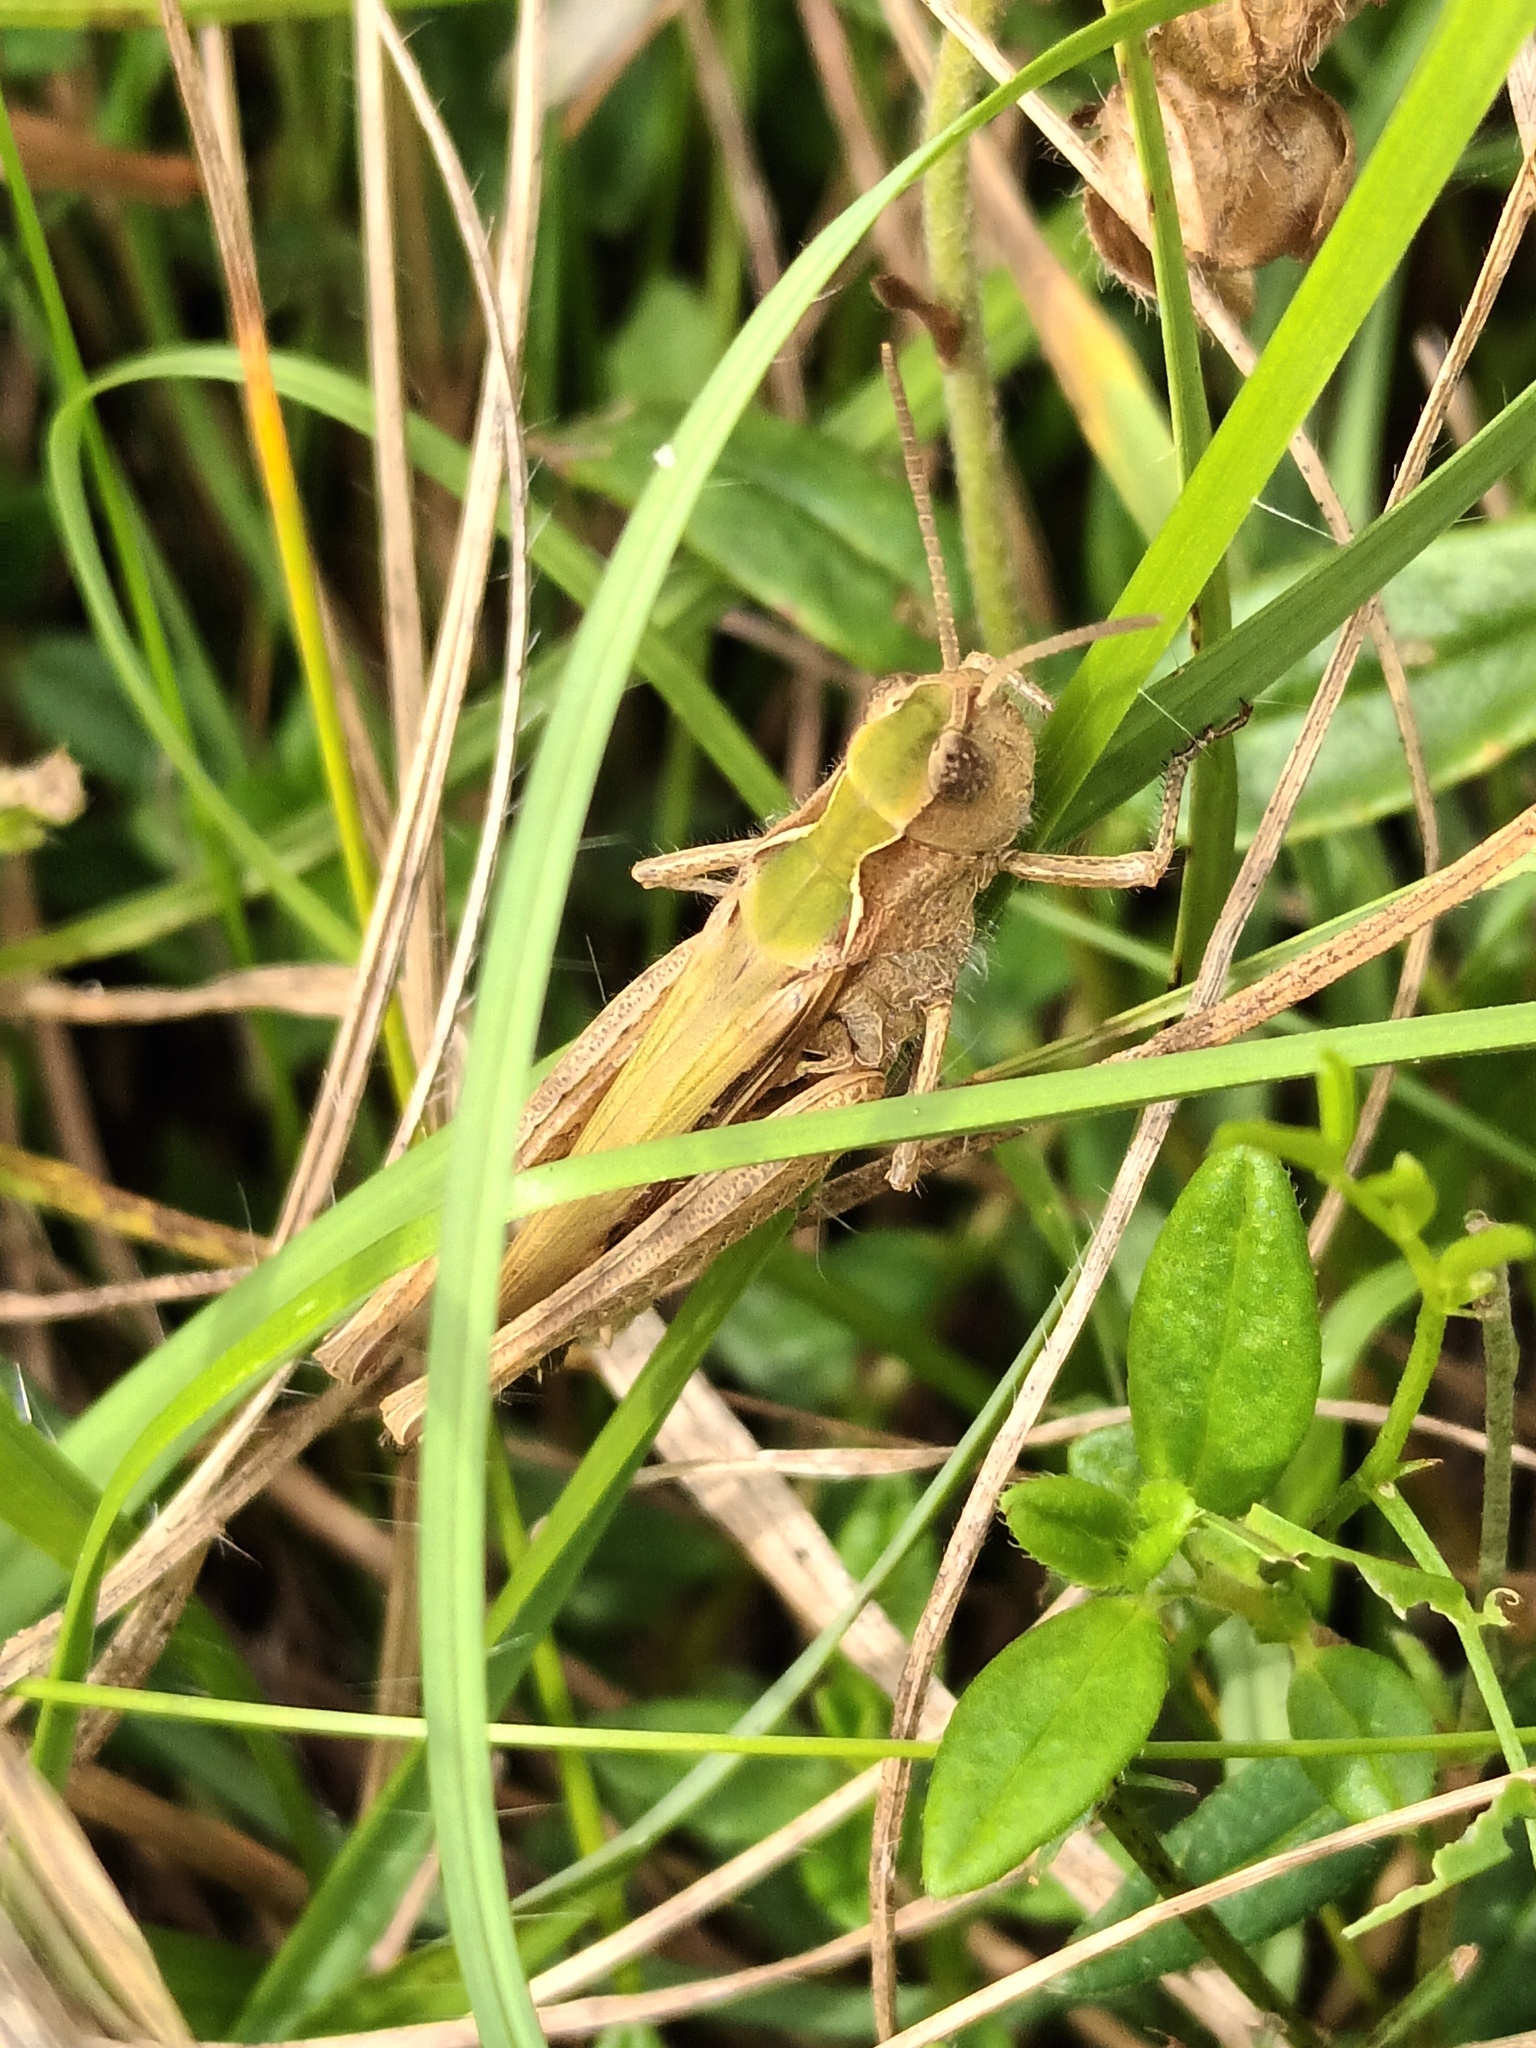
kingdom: Animalia
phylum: Arthropoda
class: Insecta
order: Orthoptera
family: Acrididae
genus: Chorthippus
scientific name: Chorthippus brunneus
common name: Field grasshopper
